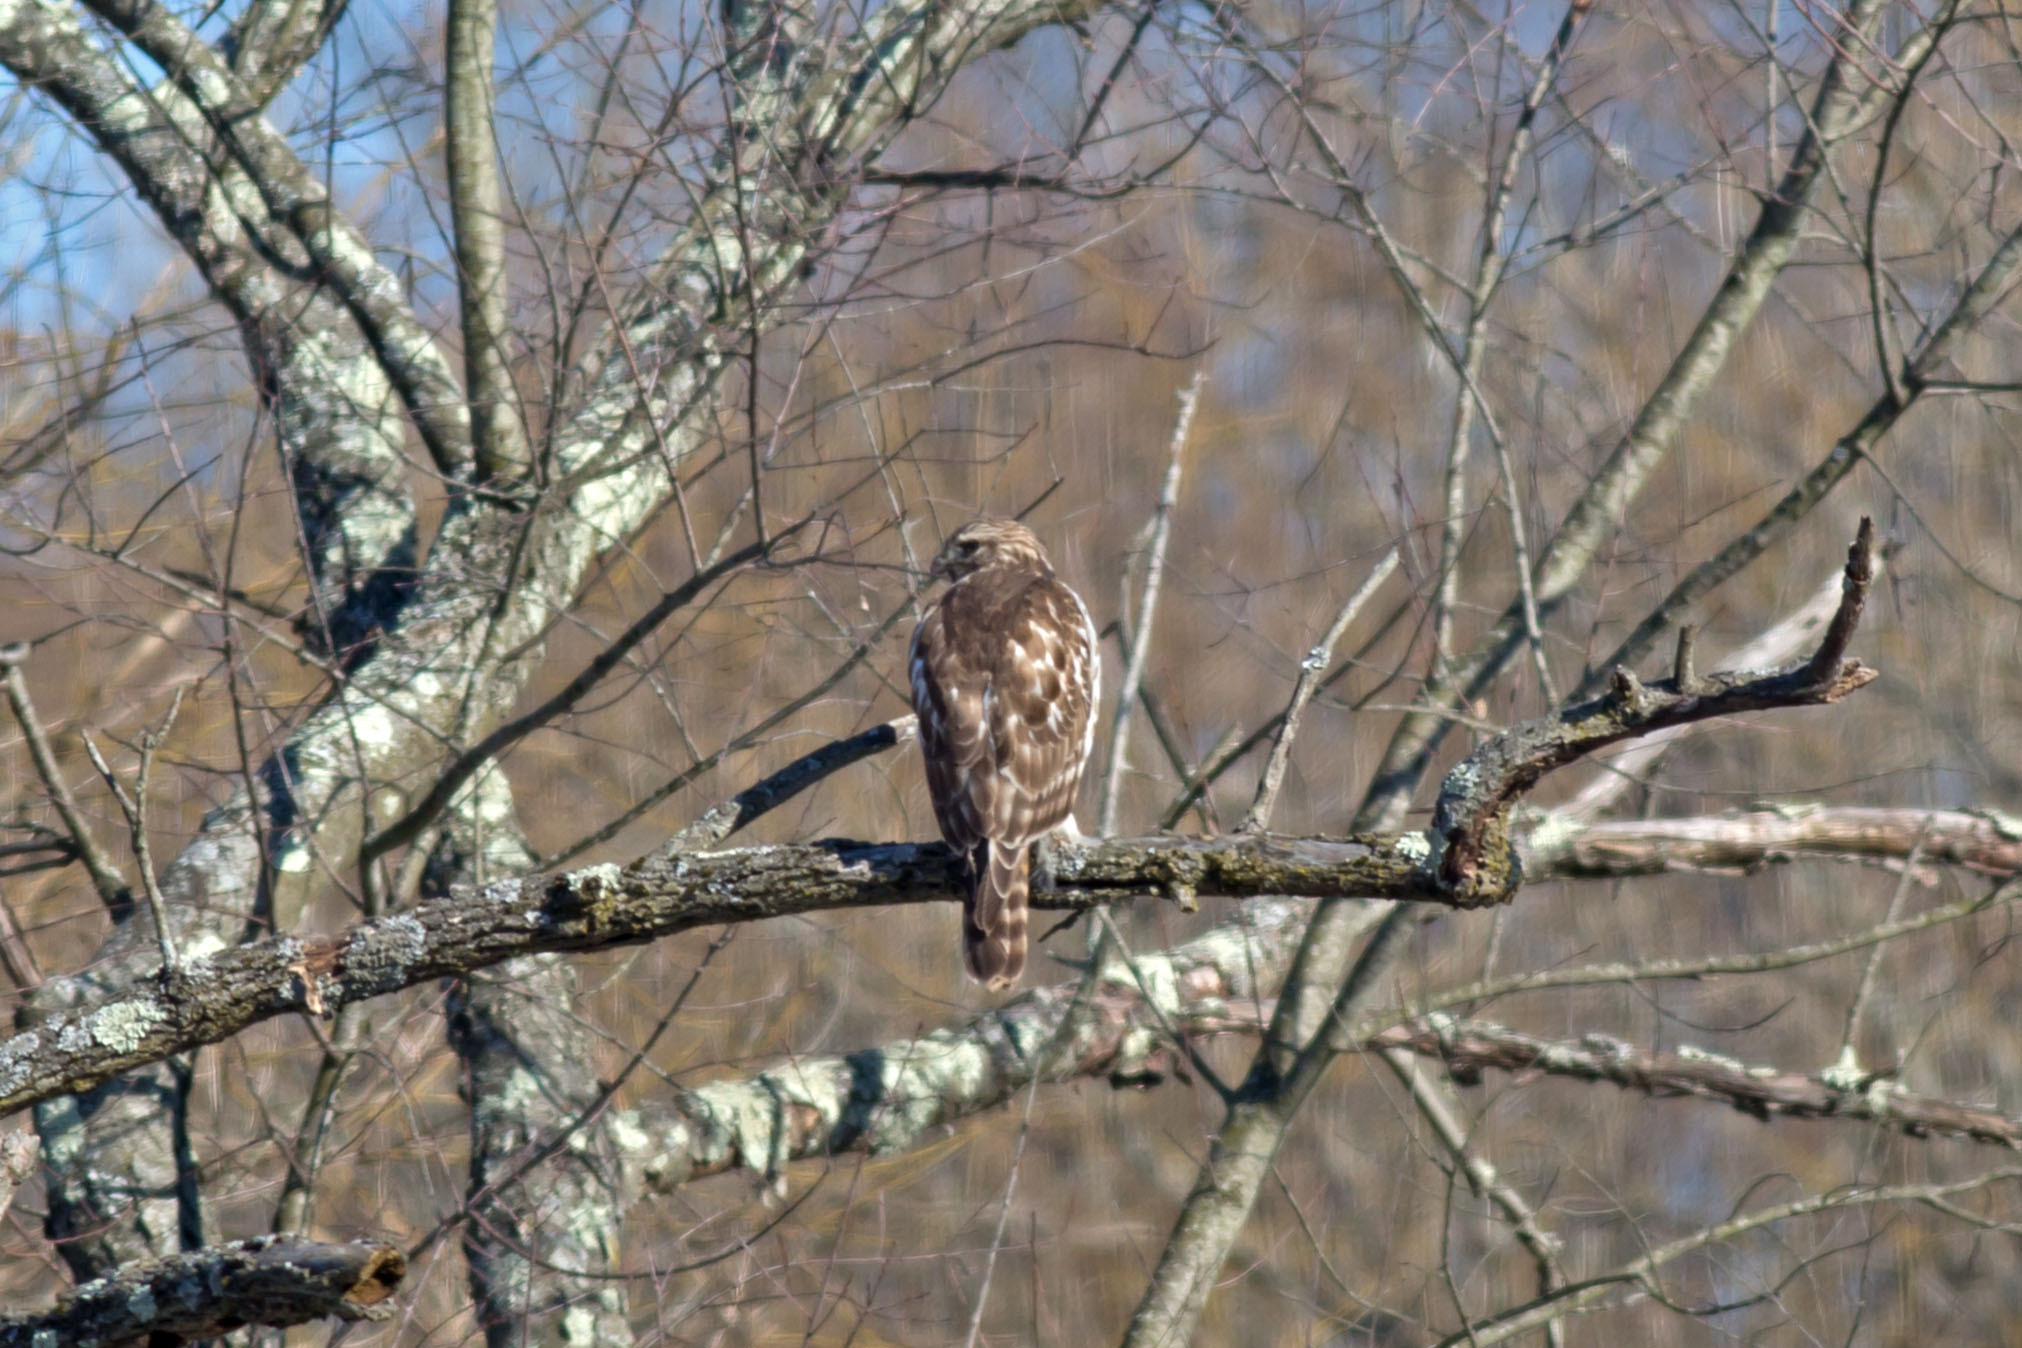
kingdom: Animalia
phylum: Chordata
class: Aves
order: Accipitriformes
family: Accipitridae
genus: Buteo
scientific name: Buteo lineatus
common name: Red-shouldered hawk
